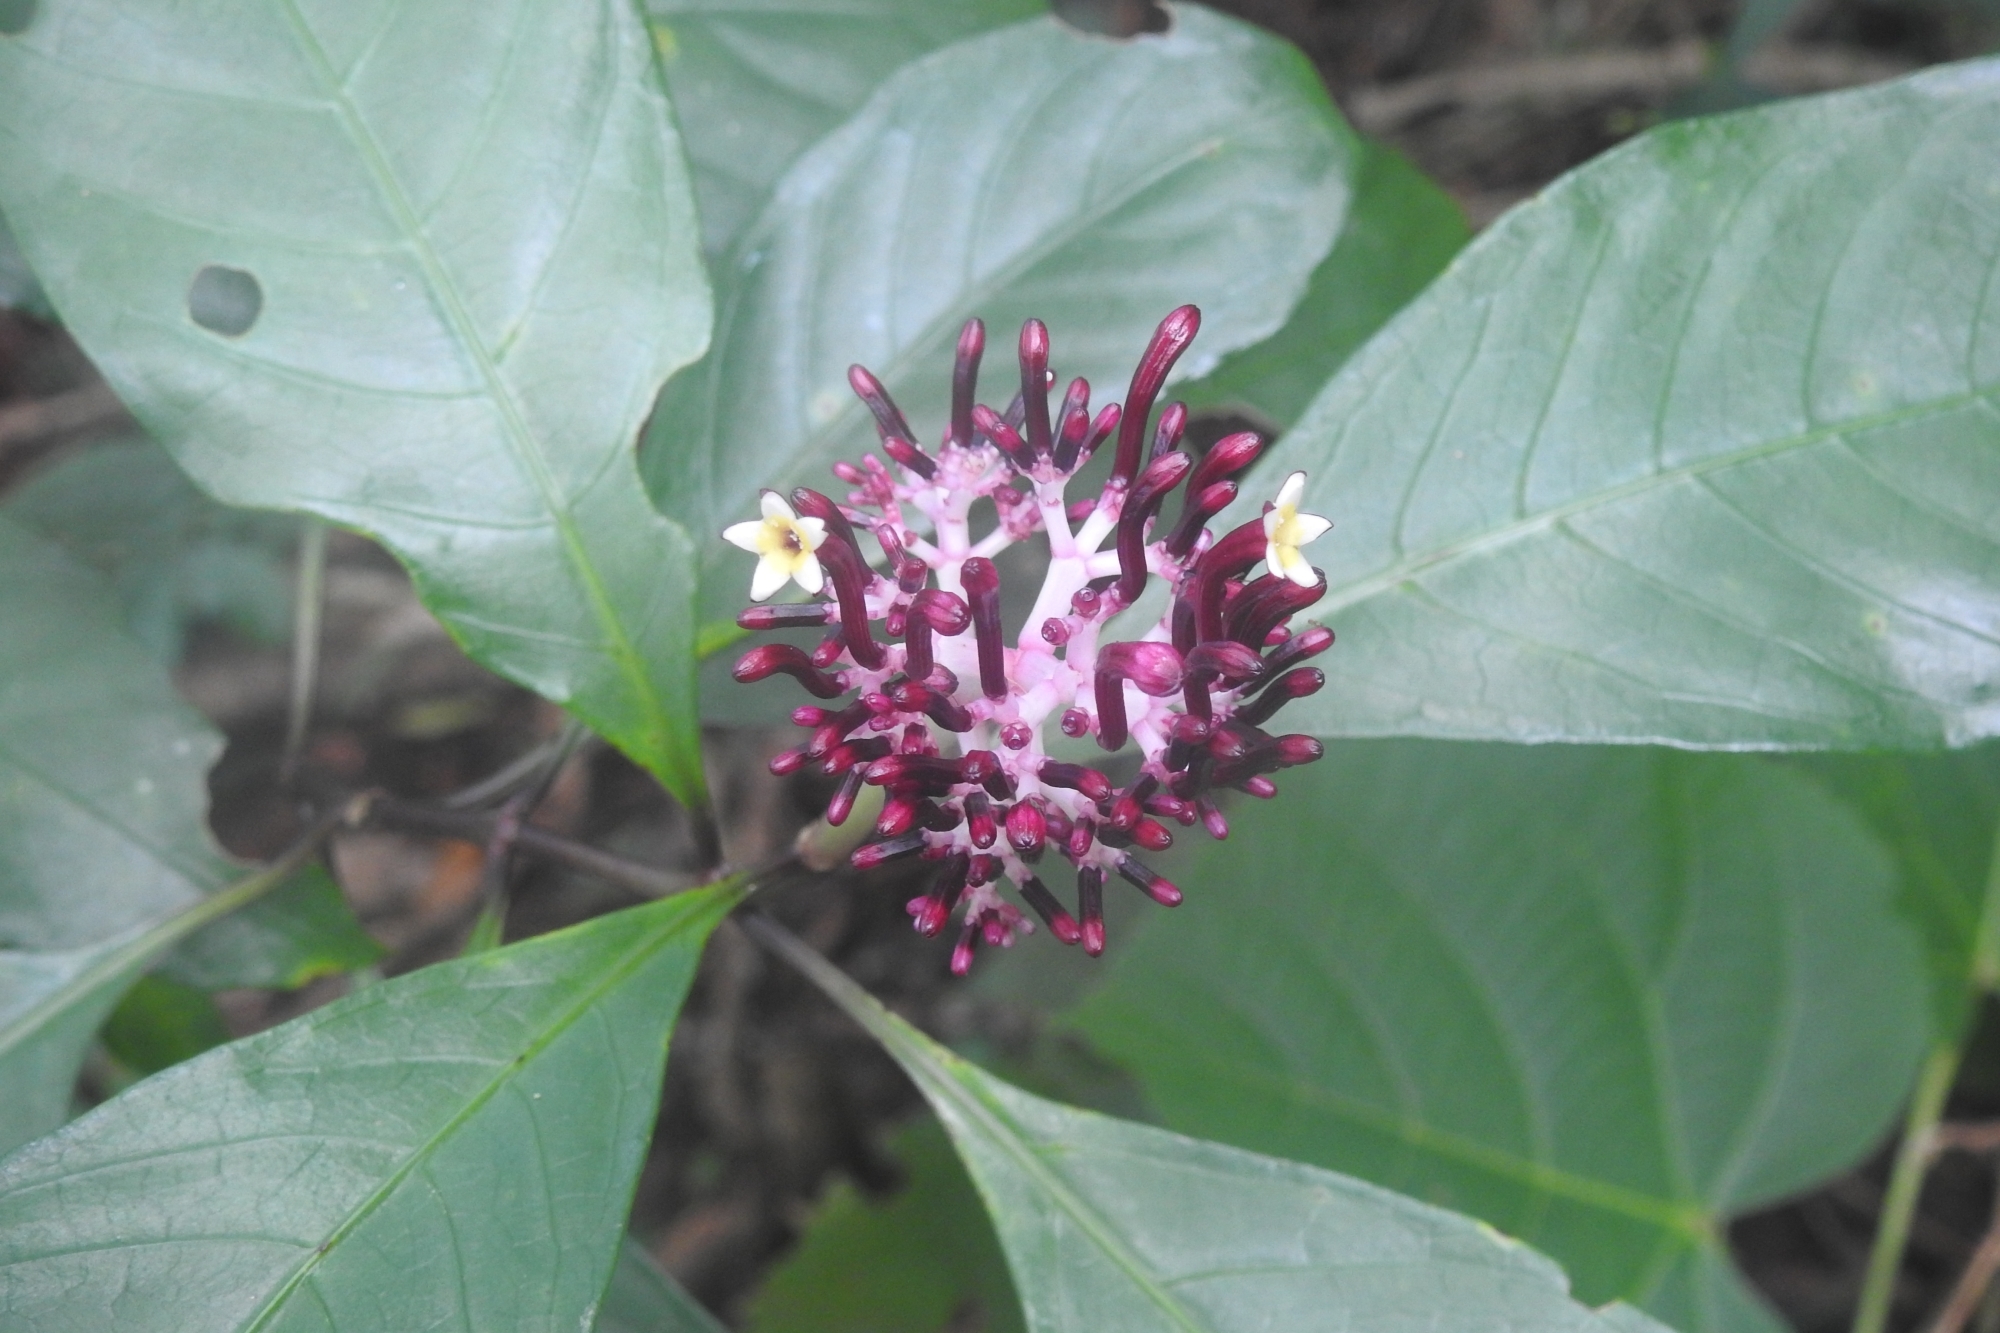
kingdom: Plantae
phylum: Tracheophyta
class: Magnoliopsida
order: Gentianales
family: Rubiaceae
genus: Chassalia
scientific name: Chassalia curviflora
